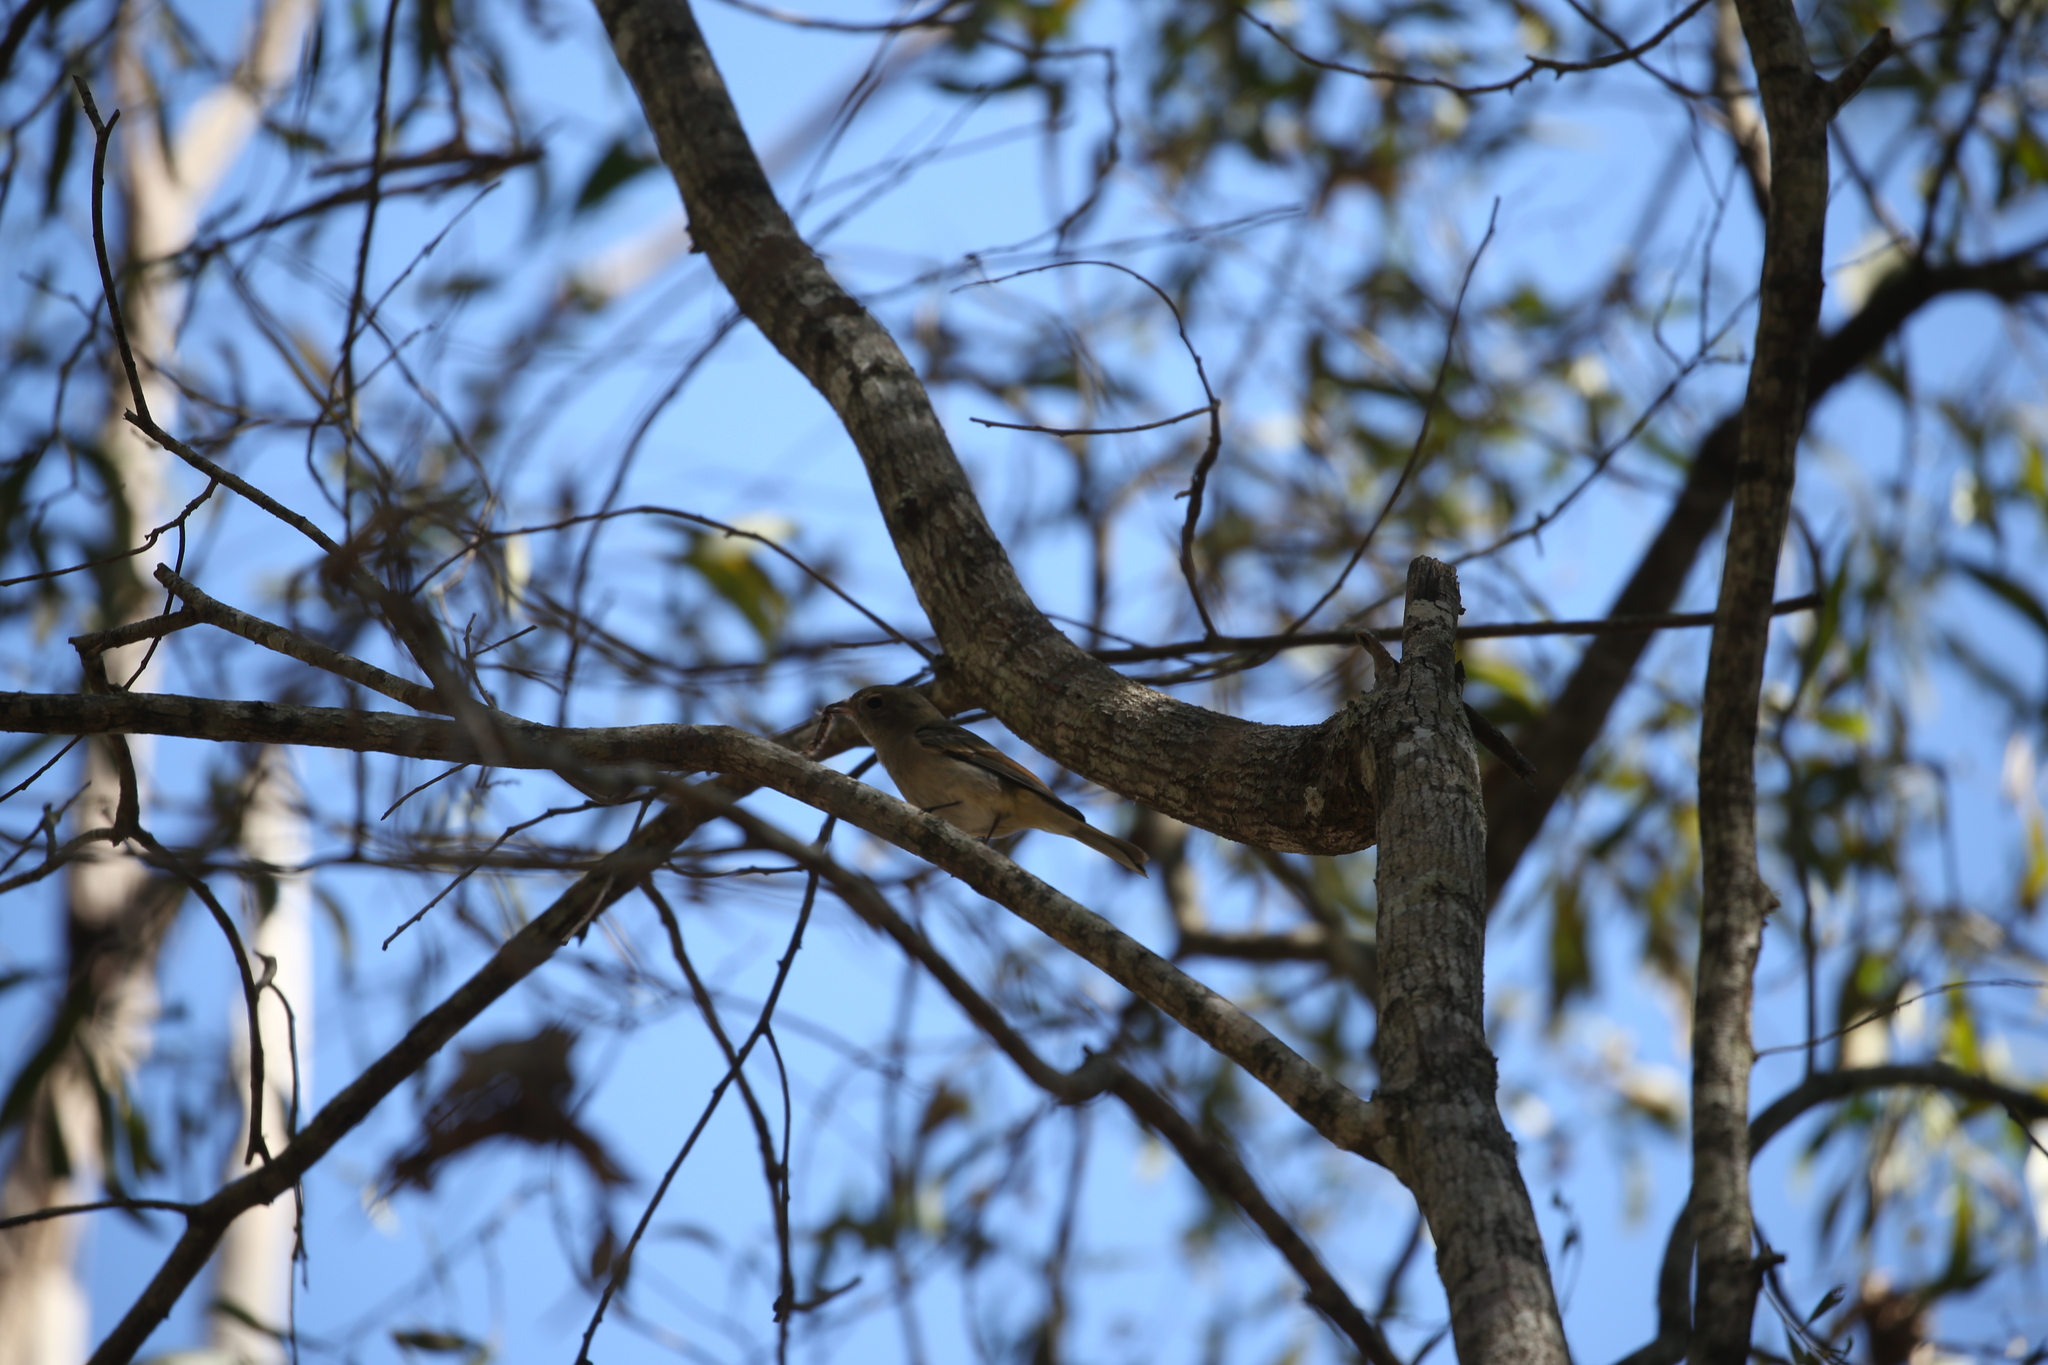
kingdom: Animalia
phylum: Chordata
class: Aves
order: Passeriformes
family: Pachycephalidae
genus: Pachycephala
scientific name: Pachycephala pectoralis
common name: Australian golden whistler
